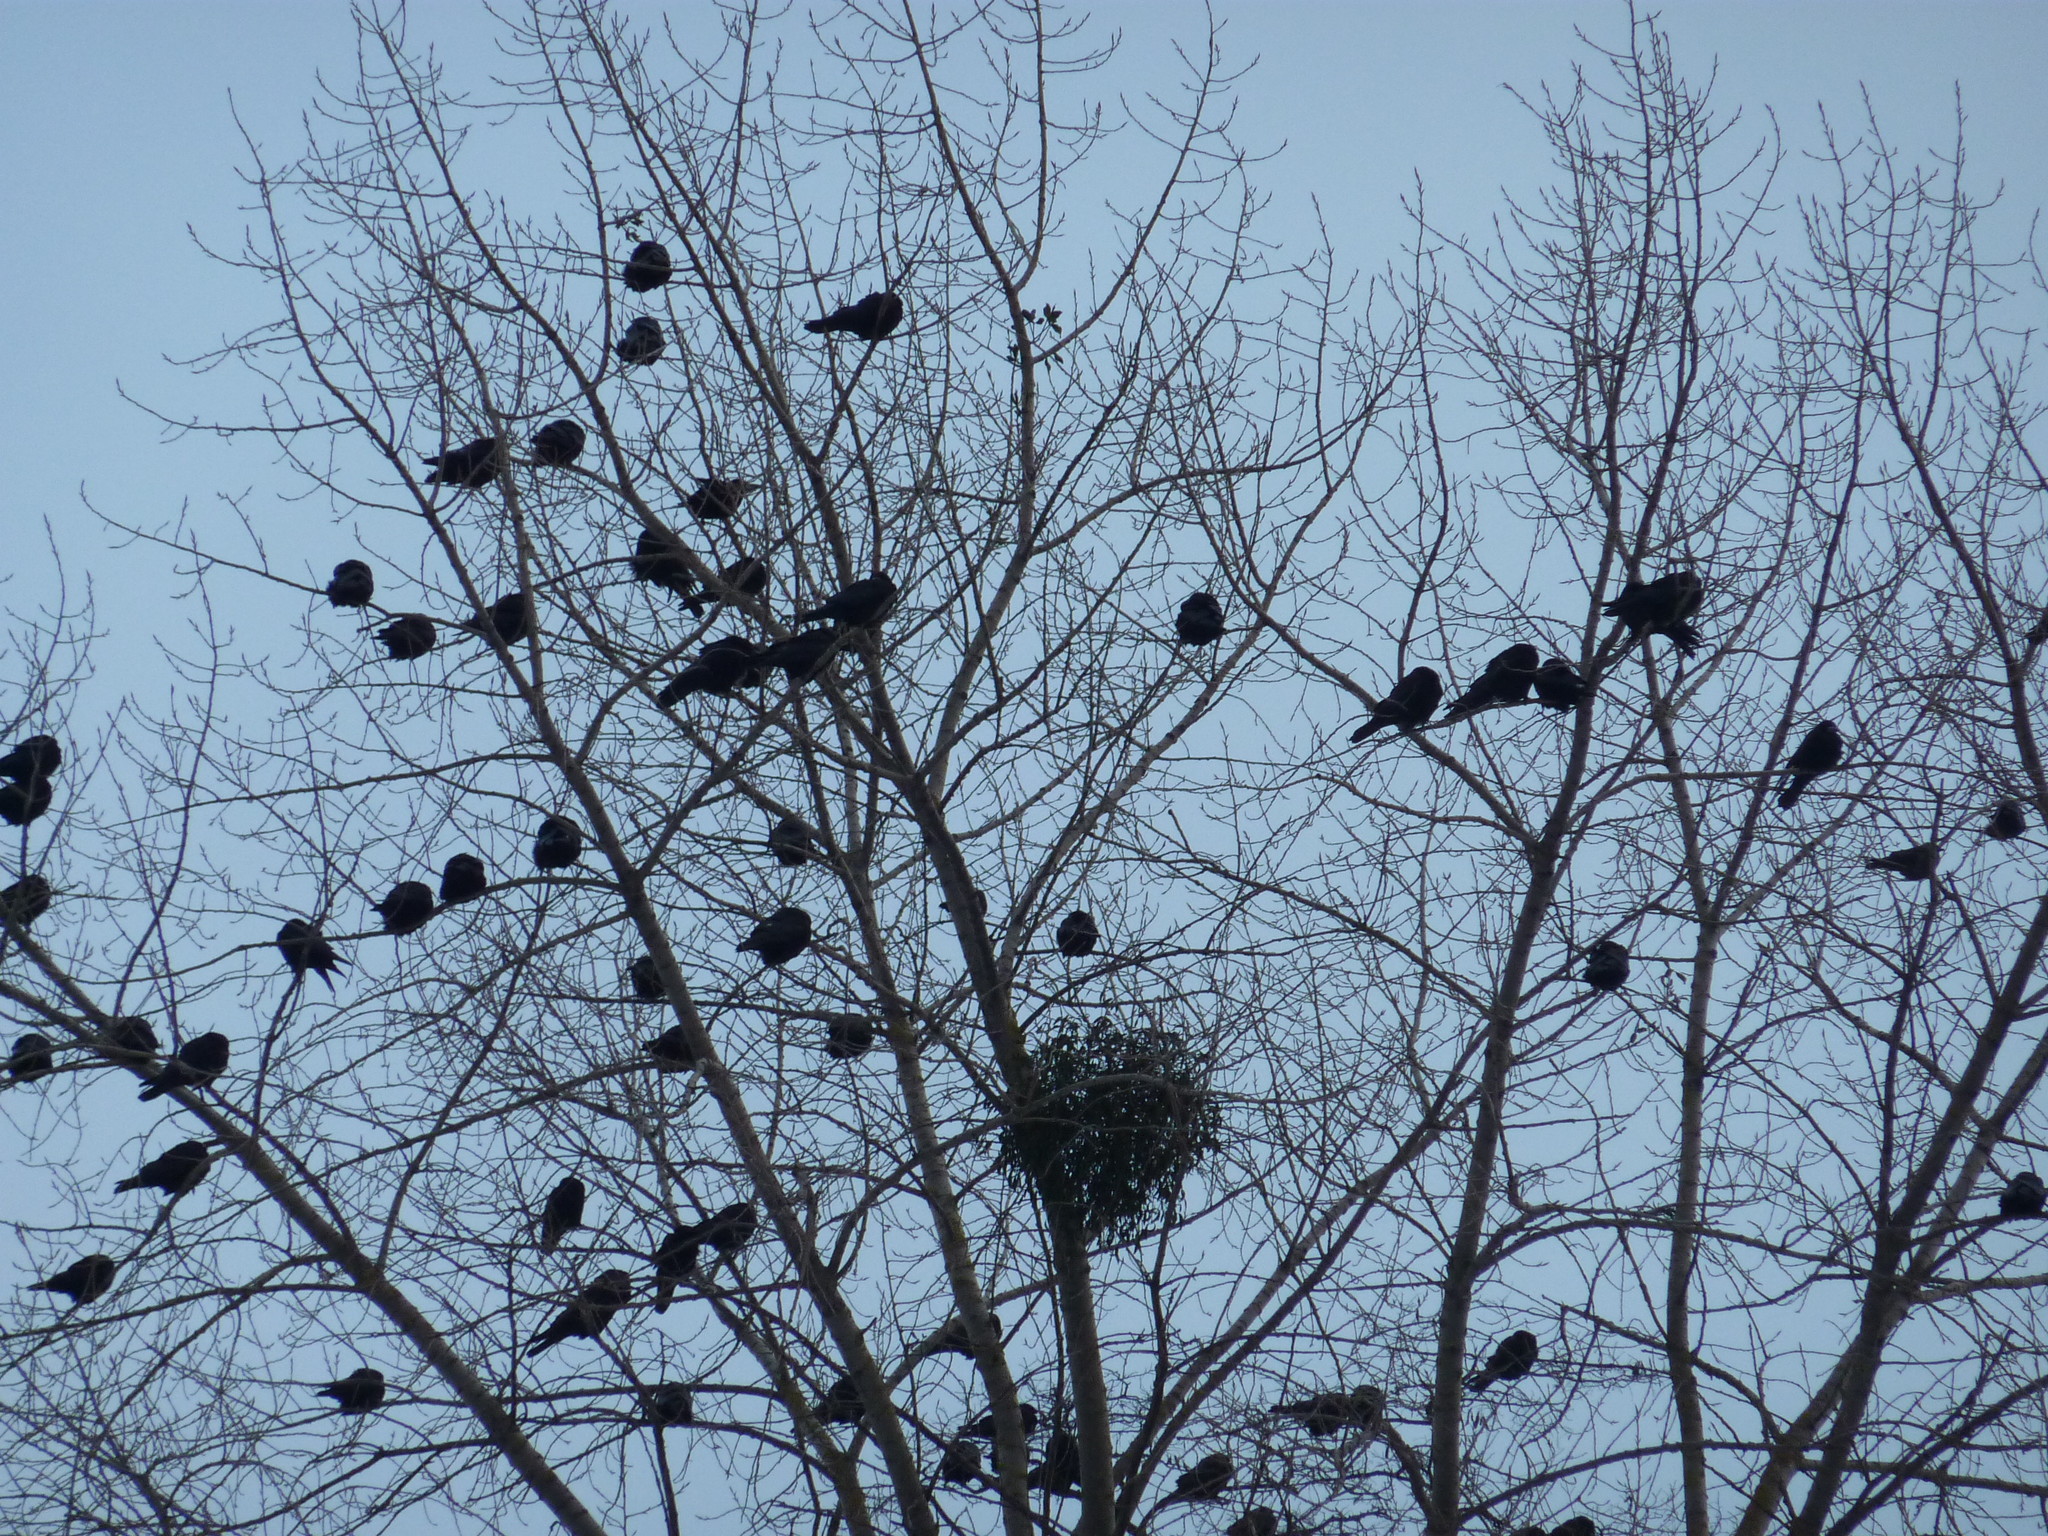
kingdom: Animalia
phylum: Chordata
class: Aves
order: Passeriformes
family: Corvidae
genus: Corvus
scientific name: Corvus frugilegus
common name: Rook
